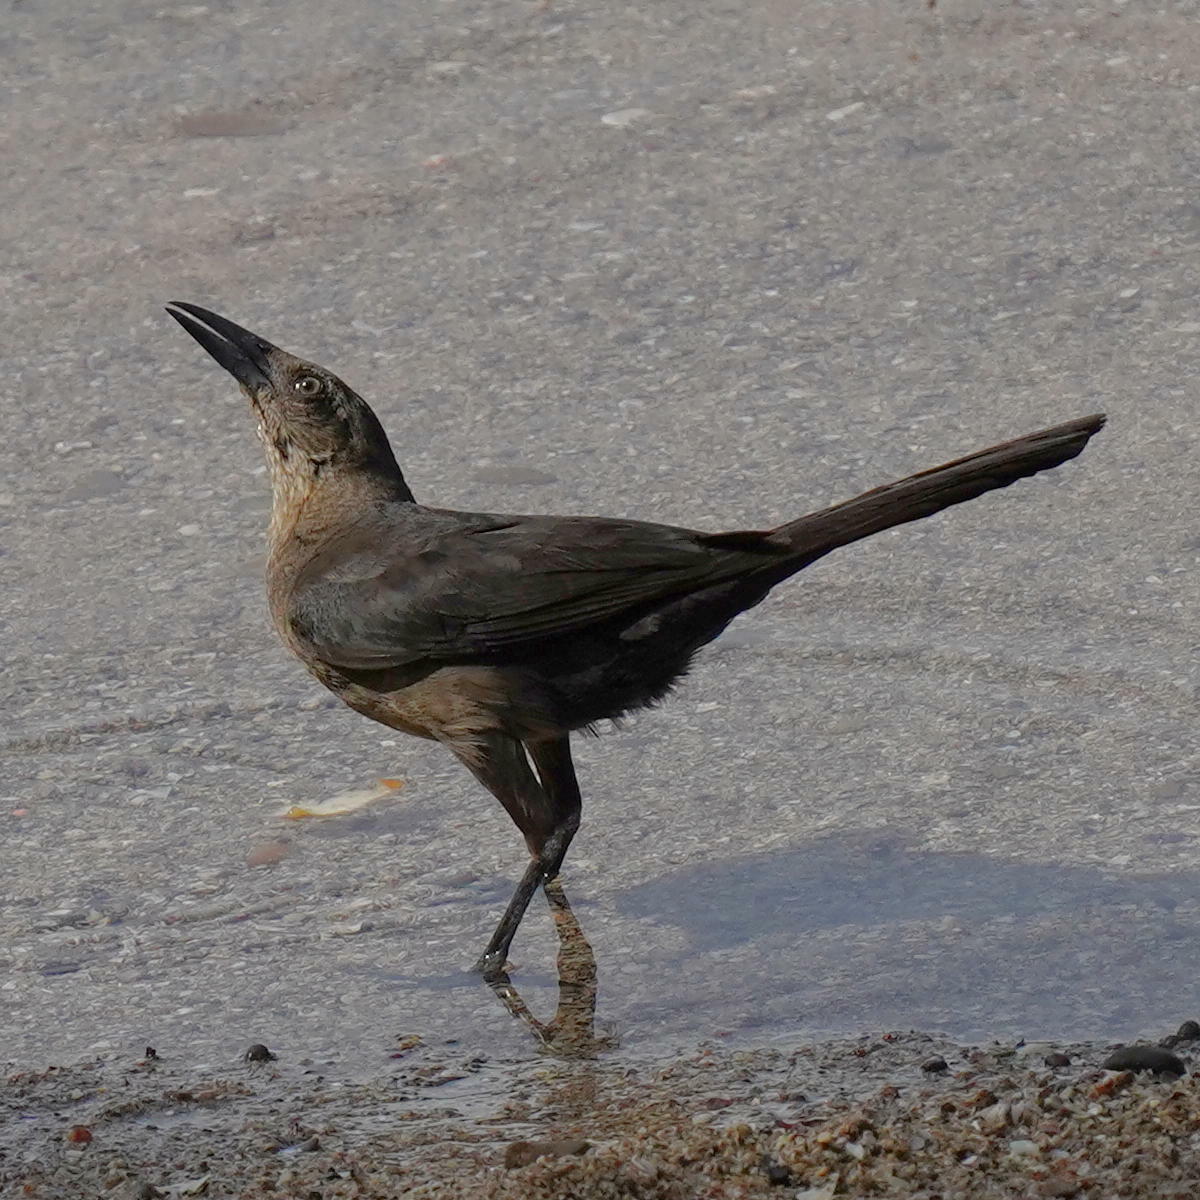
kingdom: Animalia
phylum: Chordata
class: Aves
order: Passeriformes
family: Icteridae
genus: Quiscalus
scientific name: Quiscalus mexicanus
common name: Great-tailed grackle
